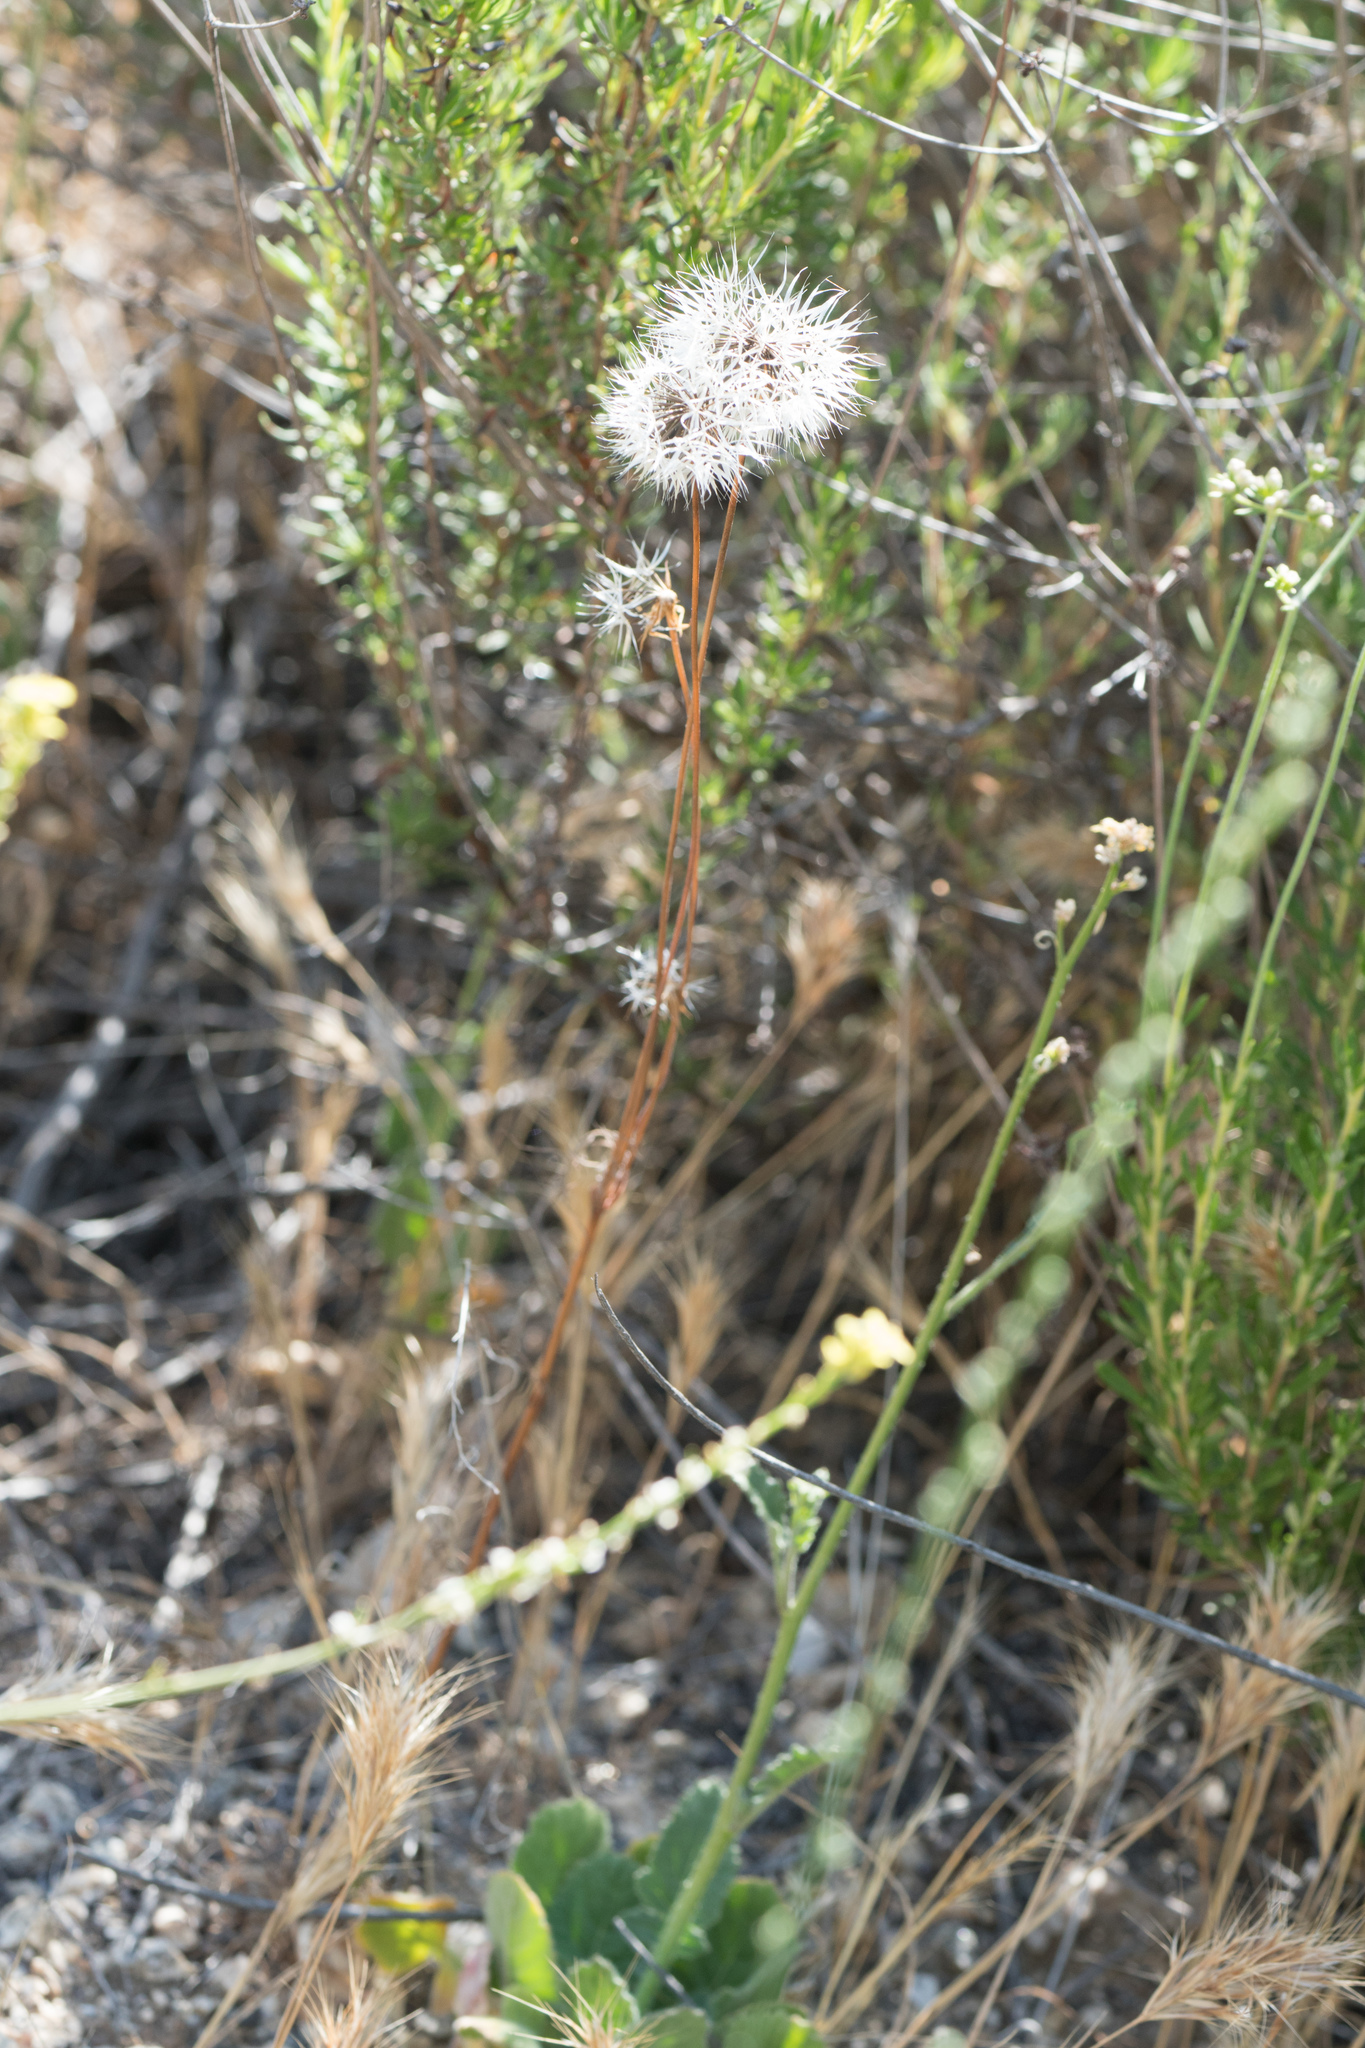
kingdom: Plantae
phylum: Tracheophyta
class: Magnoliopsida
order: Asterales
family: Asteraceae
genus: Microseris
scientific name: Microseris lindleyi
